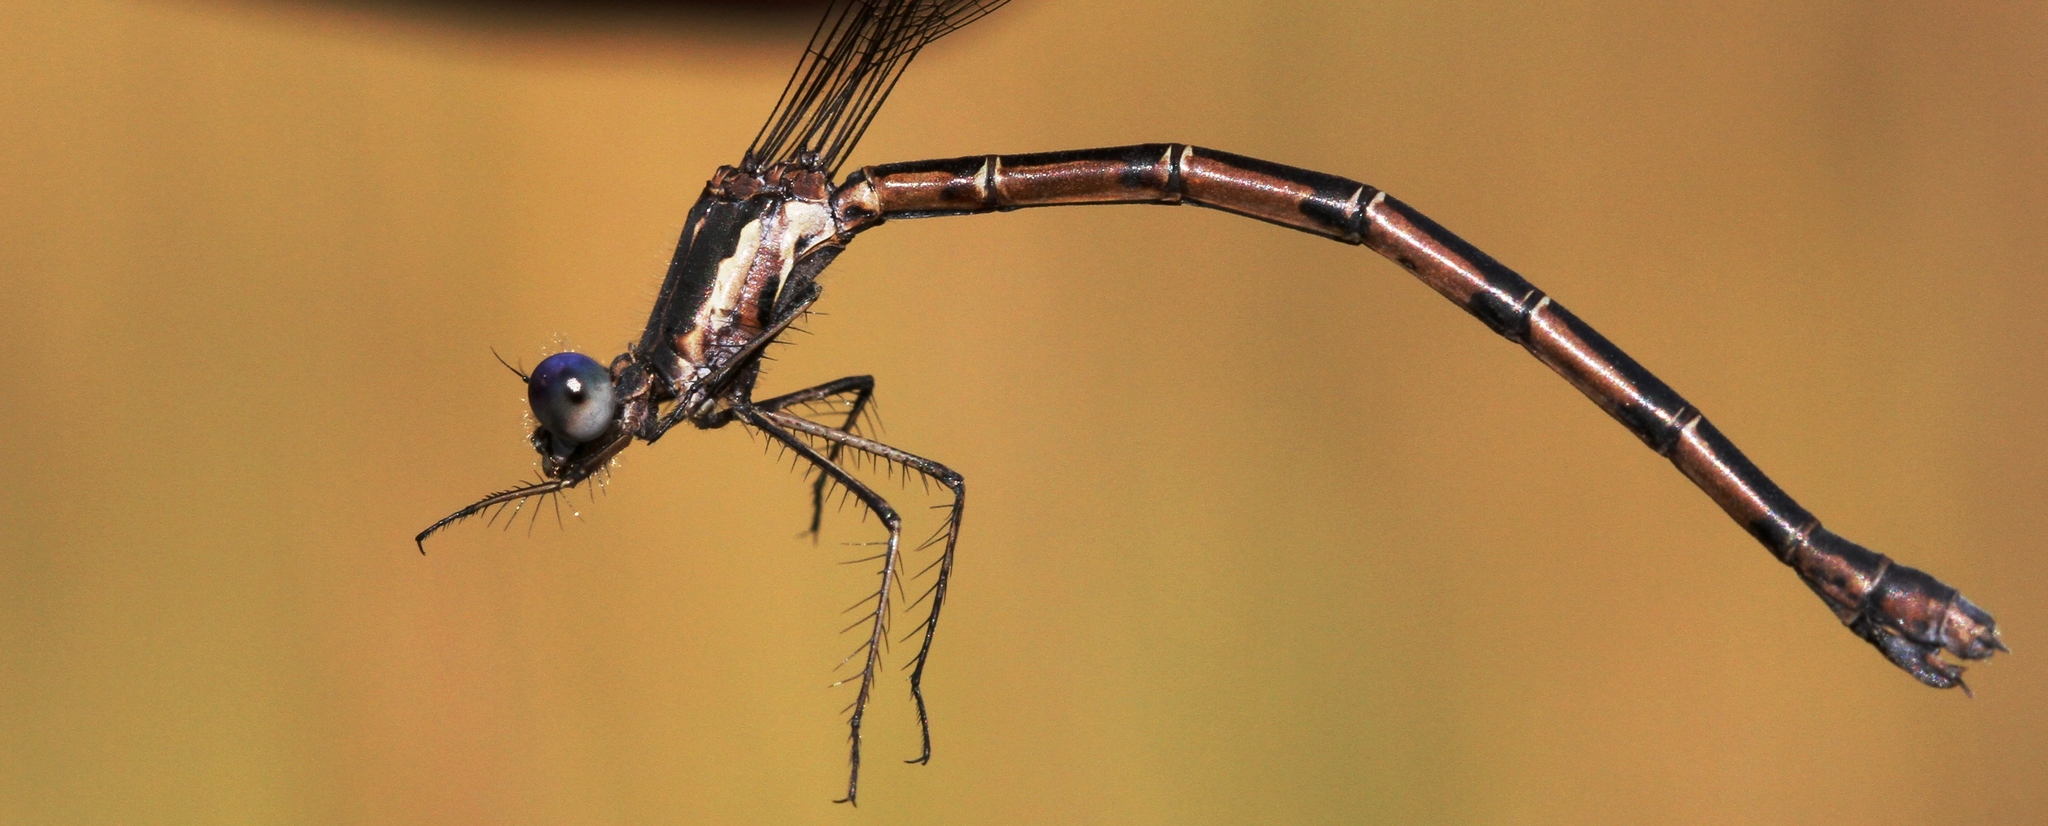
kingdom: Animalia
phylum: Arthropoda
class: Insecta
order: Odonata
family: Lestidae
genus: Lestes
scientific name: Lestes congener
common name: Spotted spreadwing
